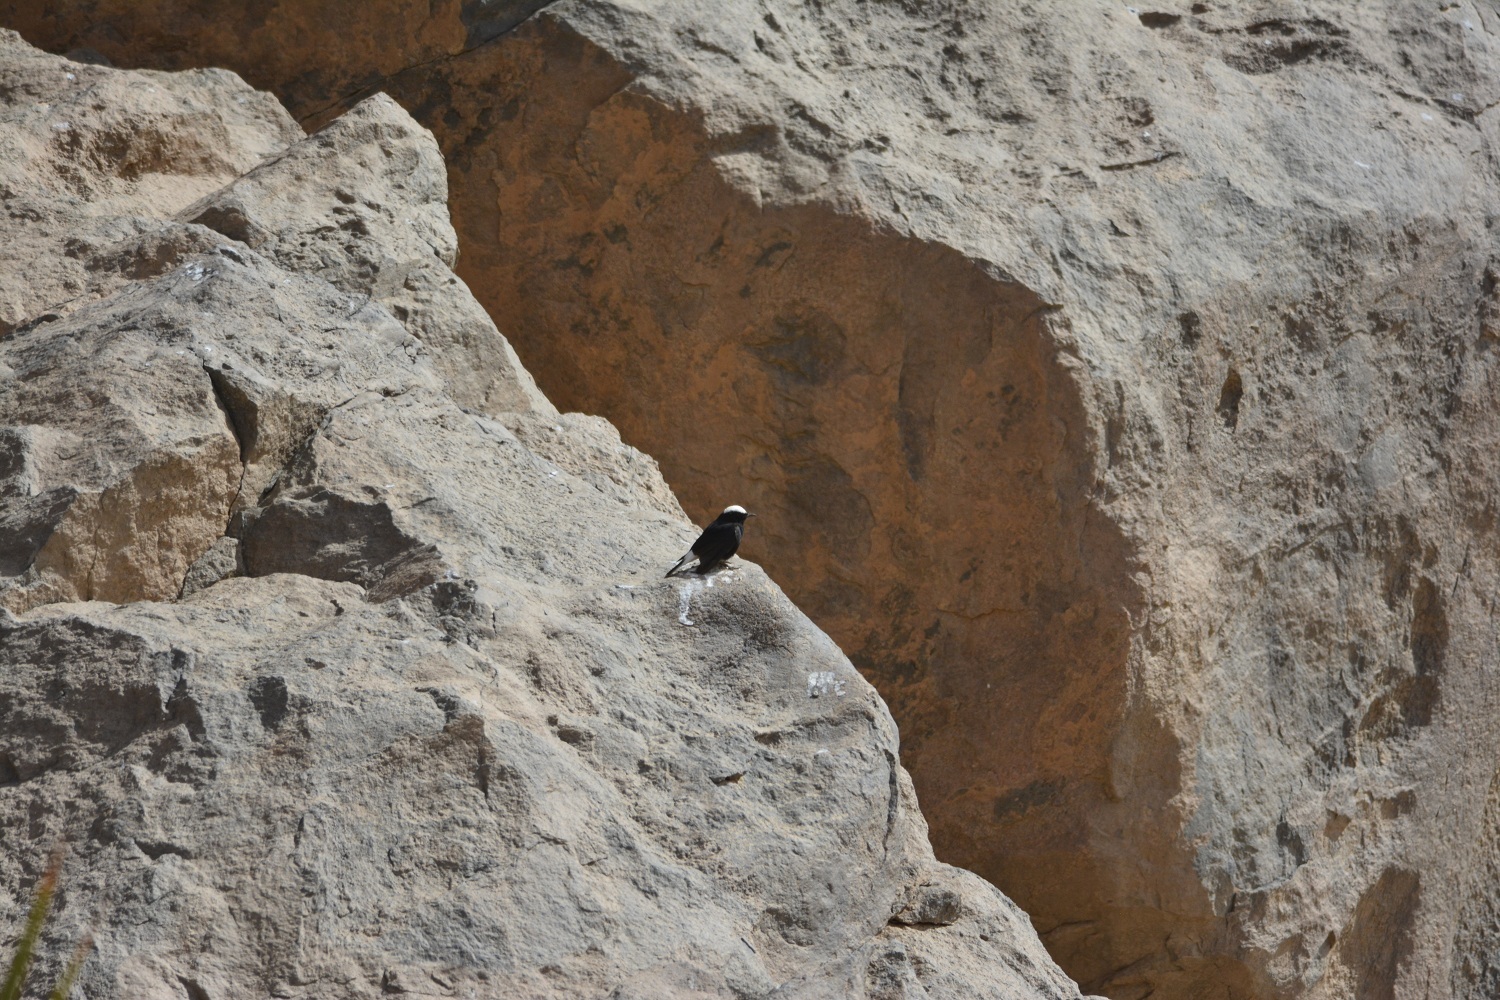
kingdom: Animalia
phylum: Chordata
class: Aves
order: Passeriformes
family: Muscicapidae
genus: Oenanthe
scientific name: Oenanthe leucopyga
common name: White-crowned wheatear
